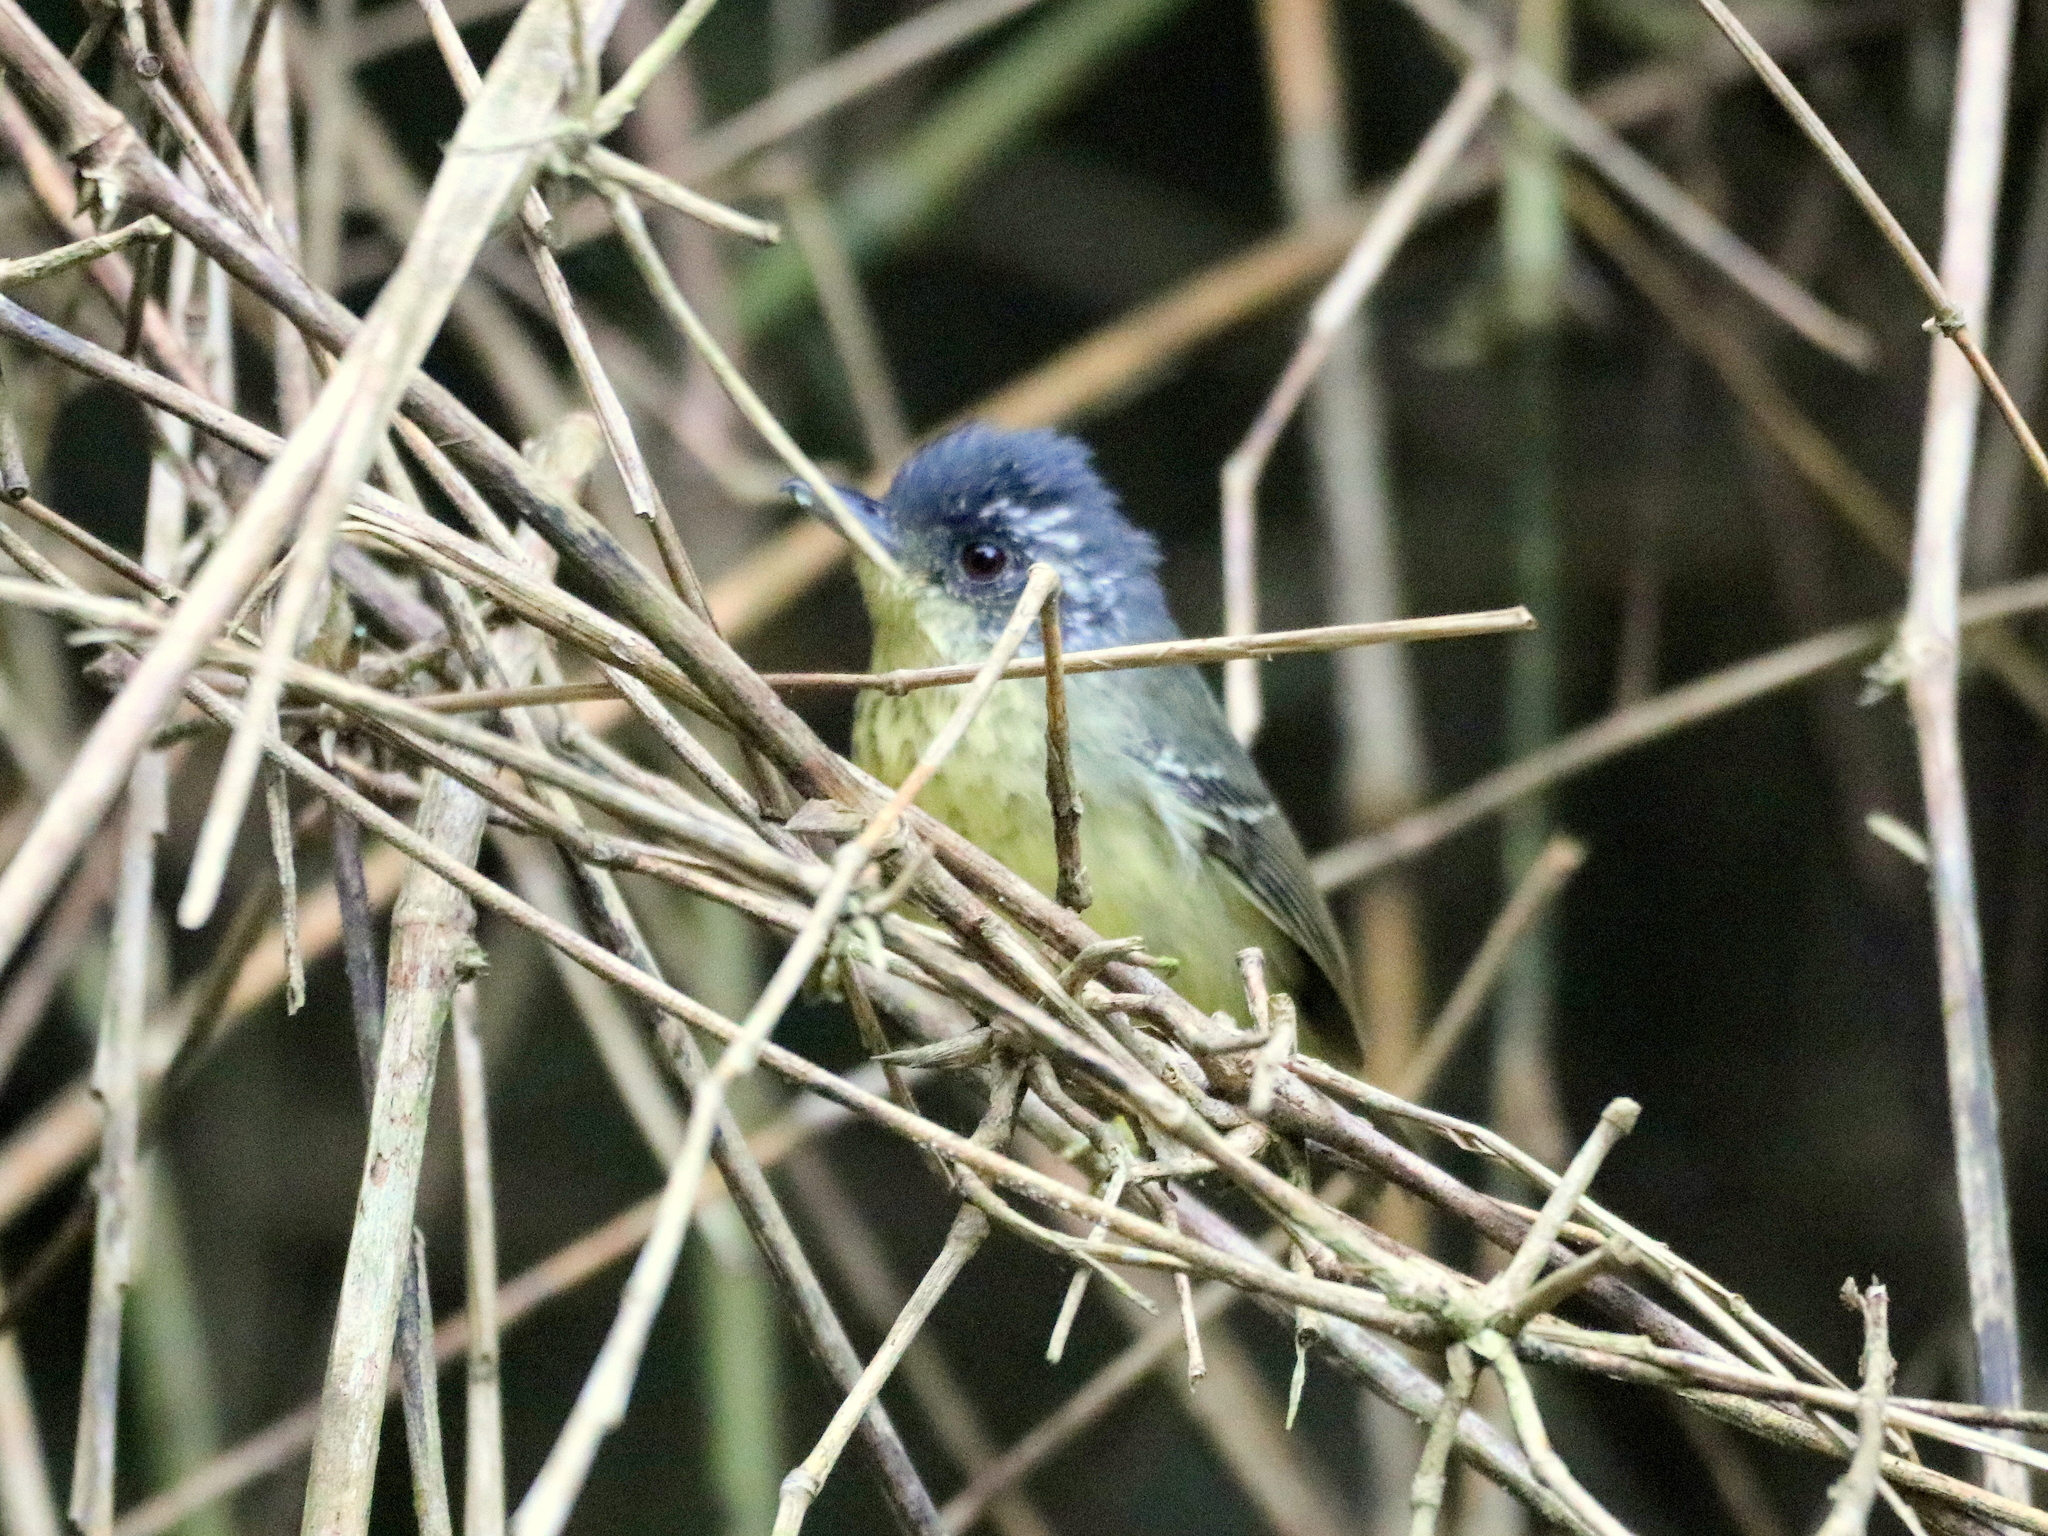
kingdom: Animalia
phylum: Chordata
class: Aves
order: Passeriformes
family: Thamnophilidae
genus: Dysithamnus
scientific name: Dysithamnus stictothorax
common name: Spot-breasted antvireo
